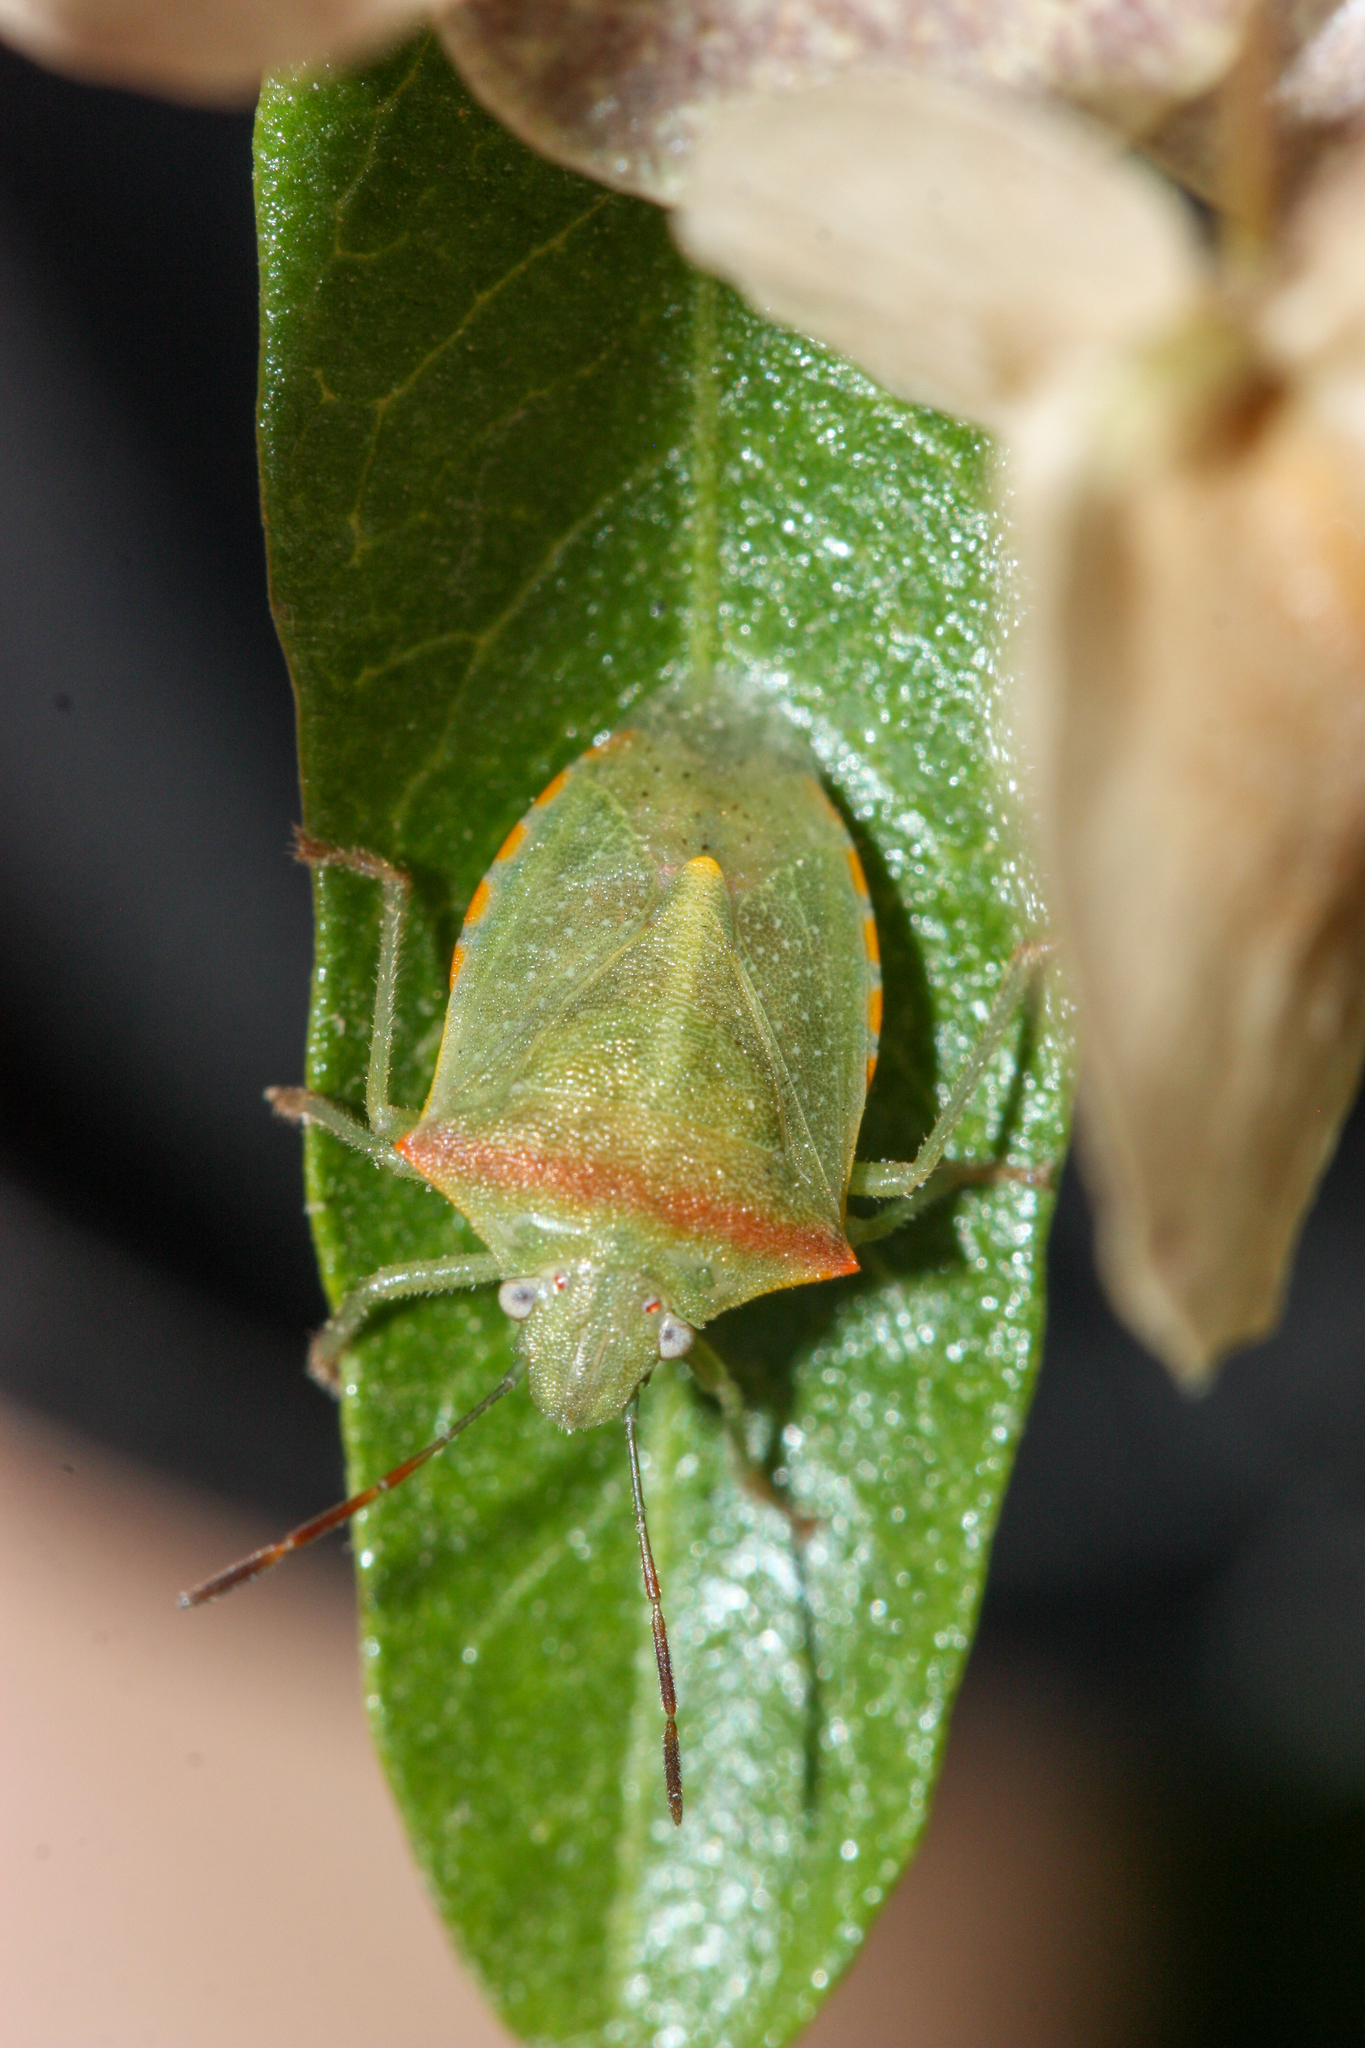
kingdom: Animalia
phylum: Arthropoda
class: Insecta
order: Hemiptera
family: Pentatomidae
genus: Thyanta
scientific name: Thyanta accerra
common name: Stink bug
